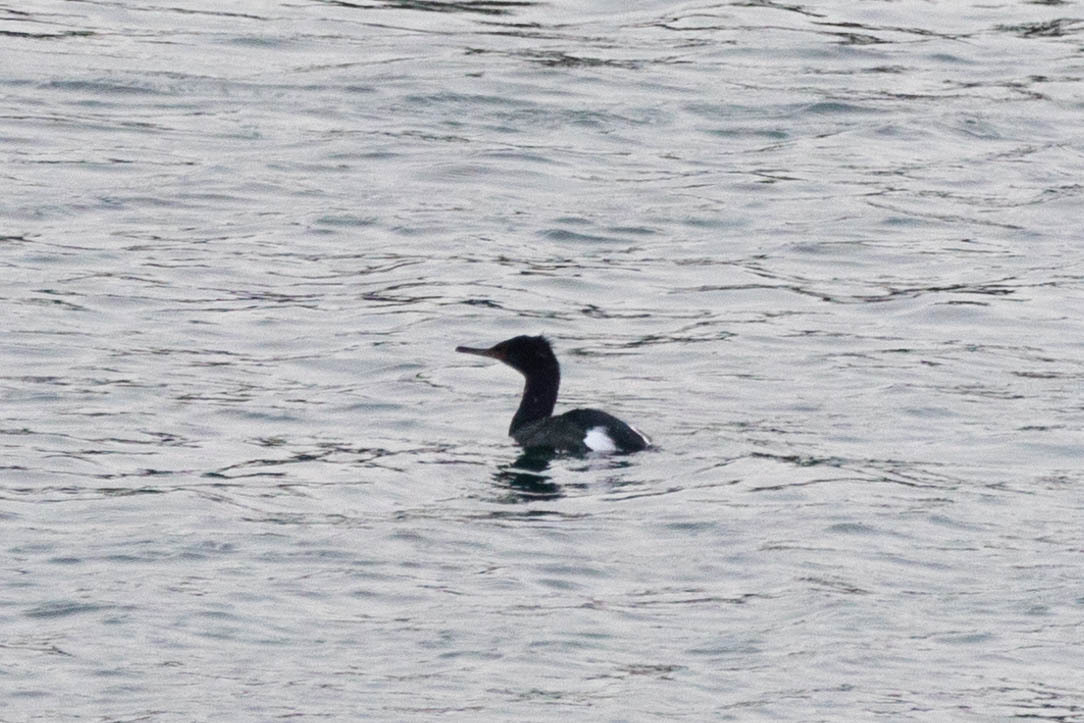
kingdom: Animalia
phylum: Chordata
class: Aves
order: Suliformes
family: Phalacrocoracidae
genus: Phalacrocorax
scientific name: Phalacrocorax pelagicus
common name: Pelagic cormorant
